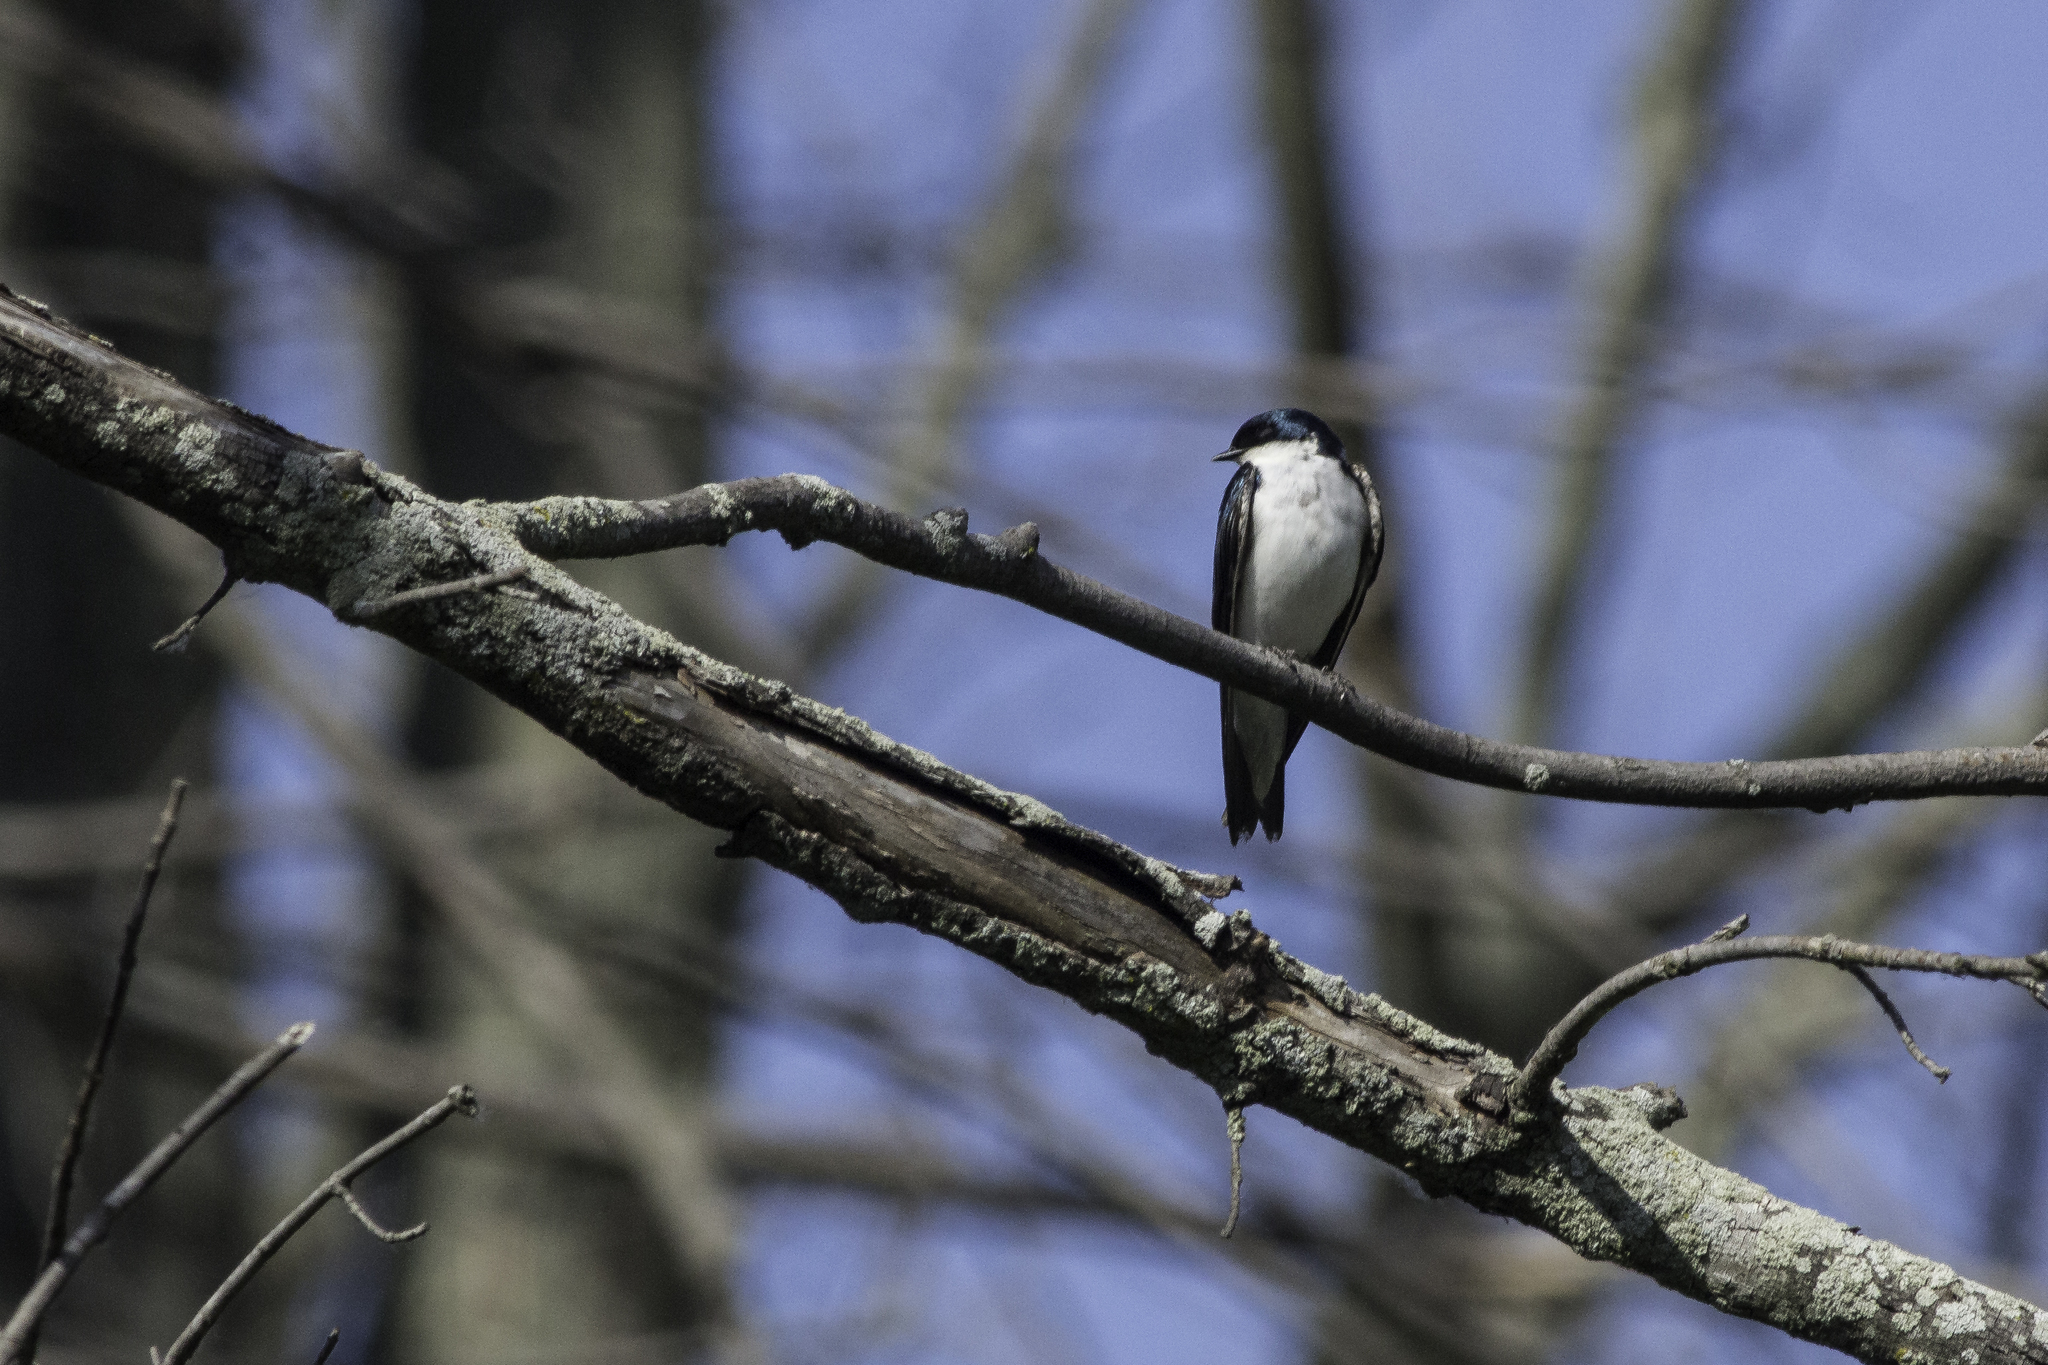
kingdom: Animalia
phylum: Chordata
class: Aves
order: Passeriformes
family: Hirundinidae
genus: Tachycineta
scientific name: Tachycineta bicolor
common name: Tree swallow
